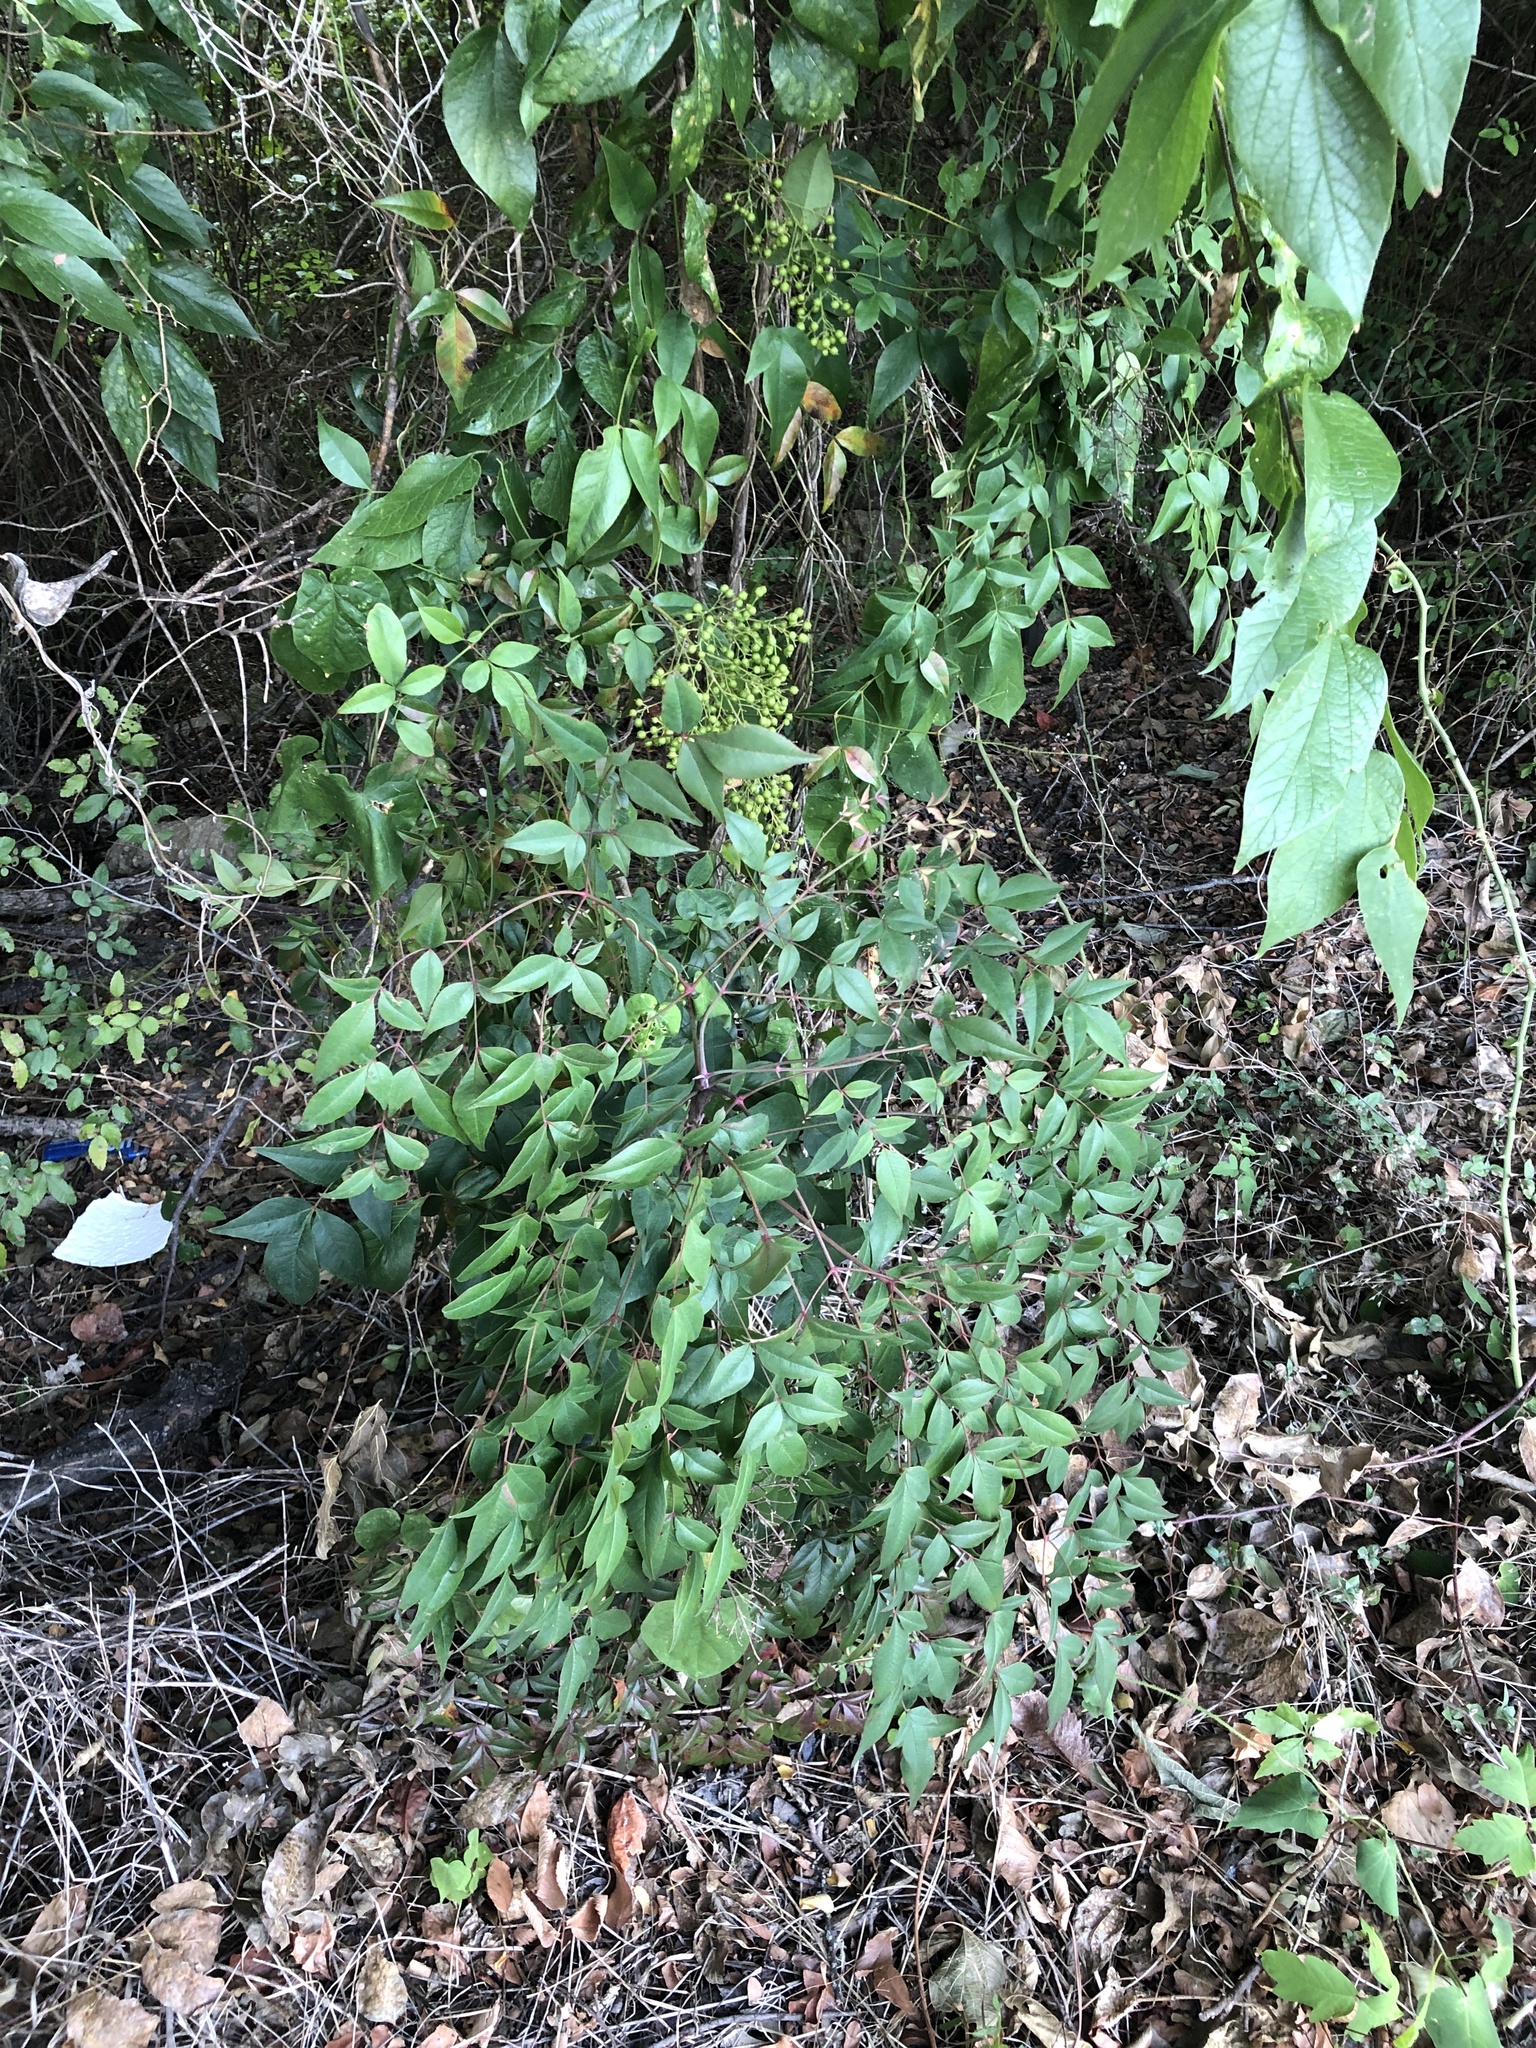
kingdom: Plantae
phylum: Tracheophyta
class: Magnoliopsida
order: Ranunculales
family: Berberidaceae
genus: Nandina
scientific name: Nandina domestica
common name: Sacred bamboo
